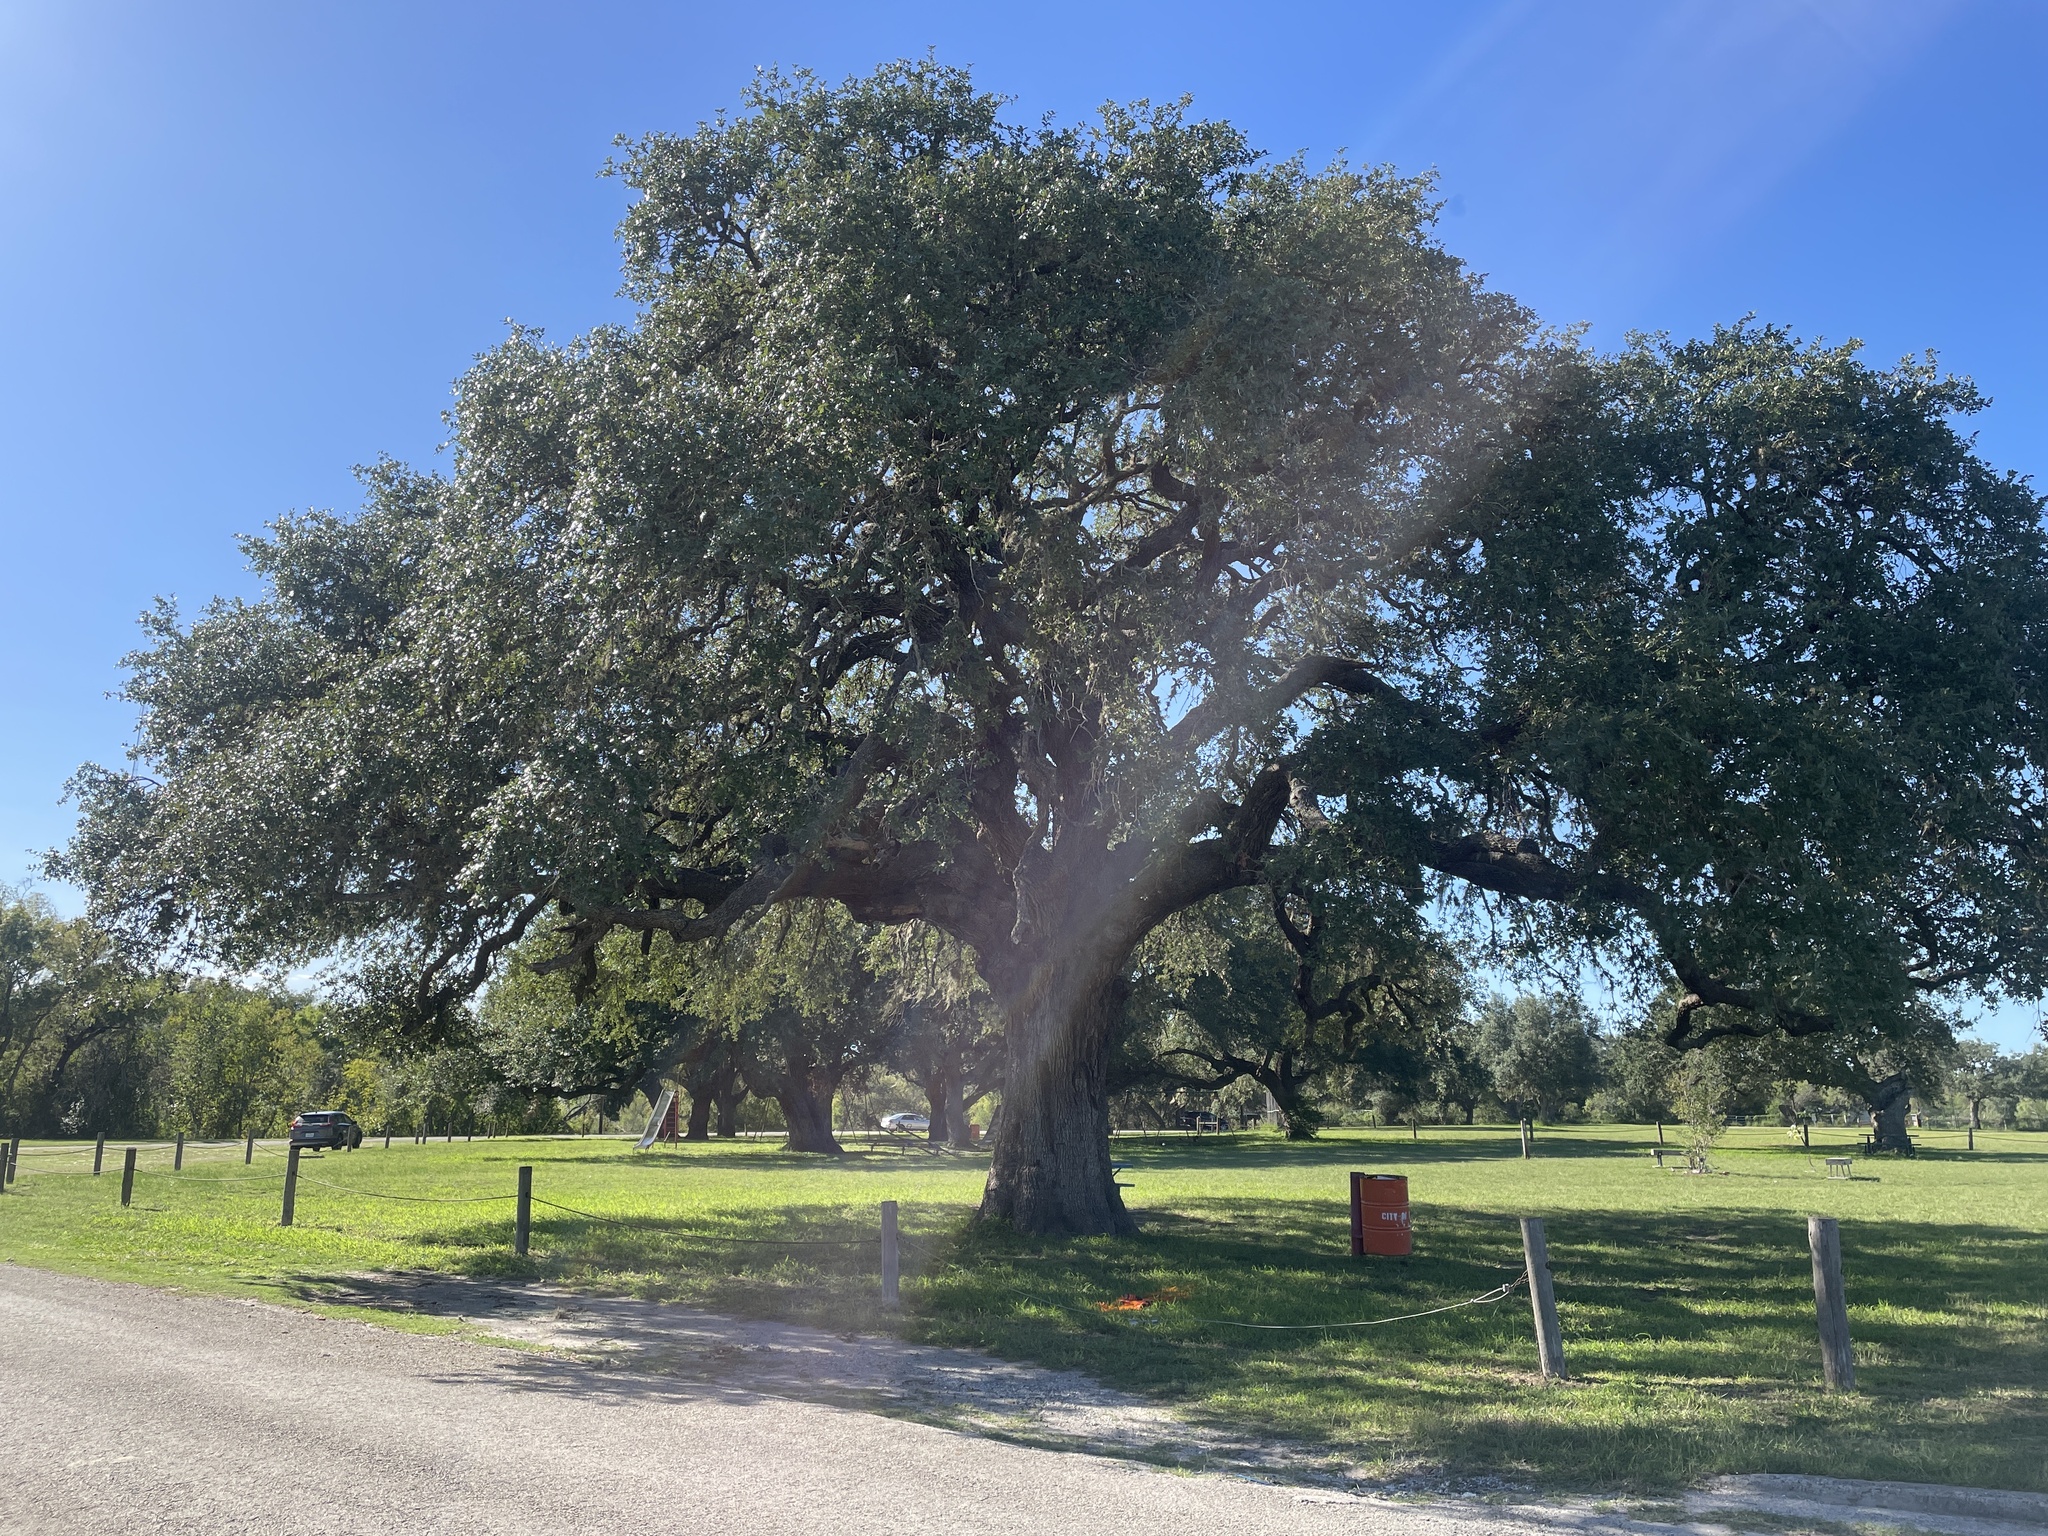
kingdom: Plantae
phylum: Tracheophyta
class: Magnoliopsida
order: Fagales
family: Fagaceae
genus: Quercus
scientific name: Quercus fusiformis
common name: Texas live oak
